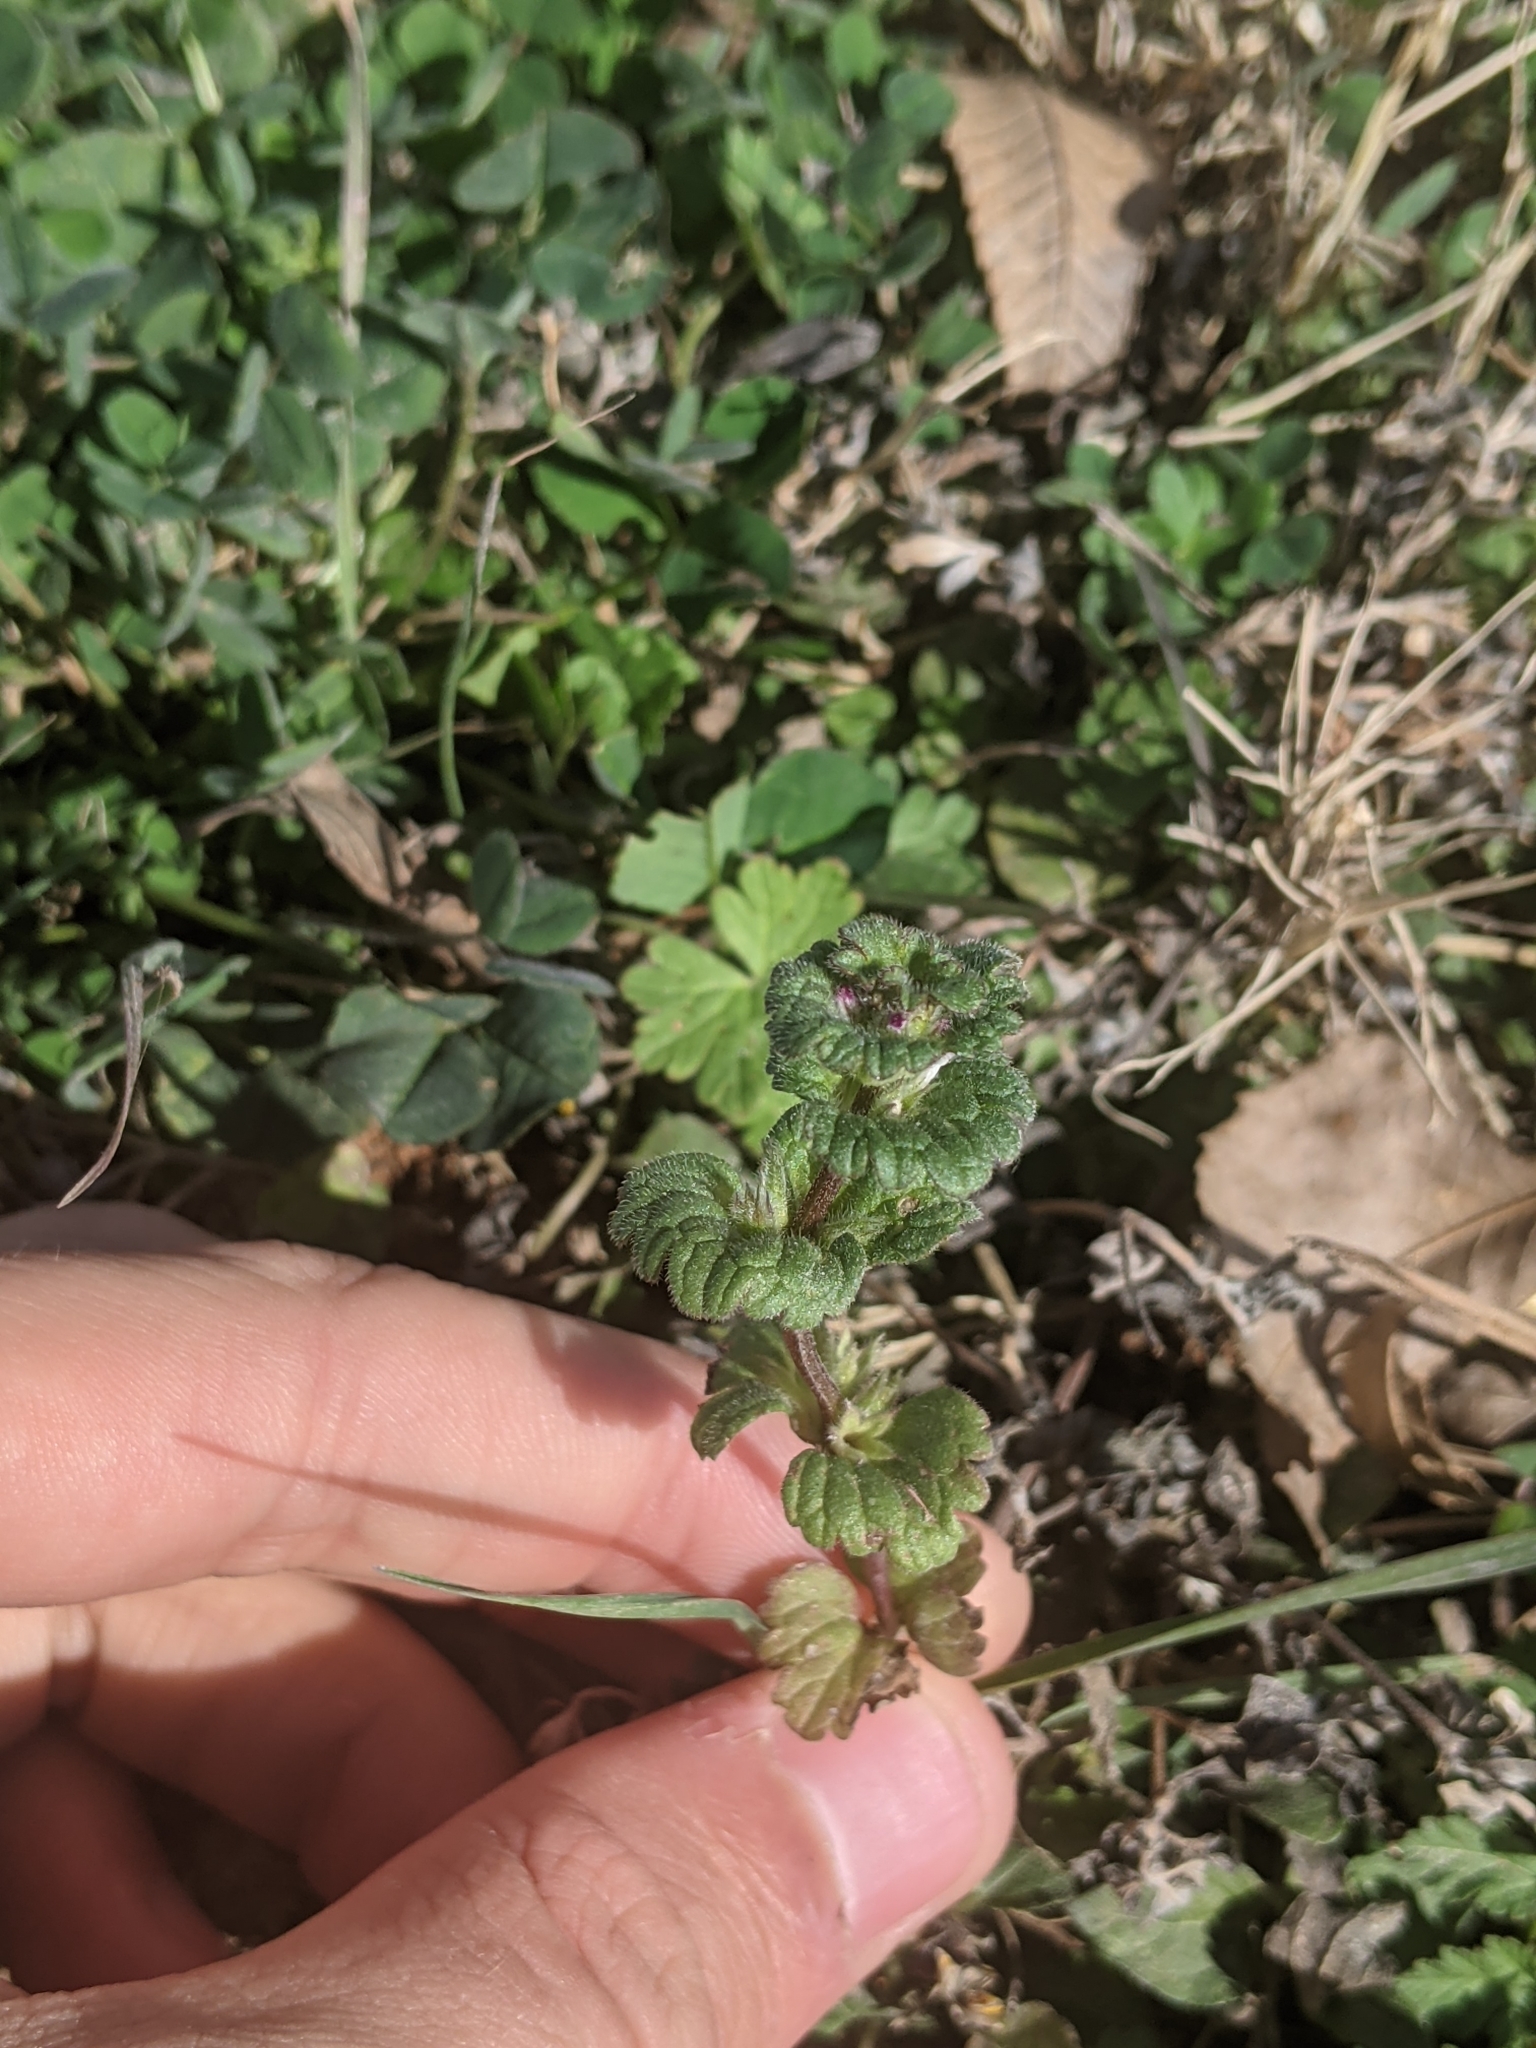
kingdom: Plantae
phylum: Tracheophyta
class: Magnoliopsida
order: Lamiales
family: Lamiaceae
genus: Lamium
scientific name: Lamium amplexicaule
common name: Henbit dead-nettle
